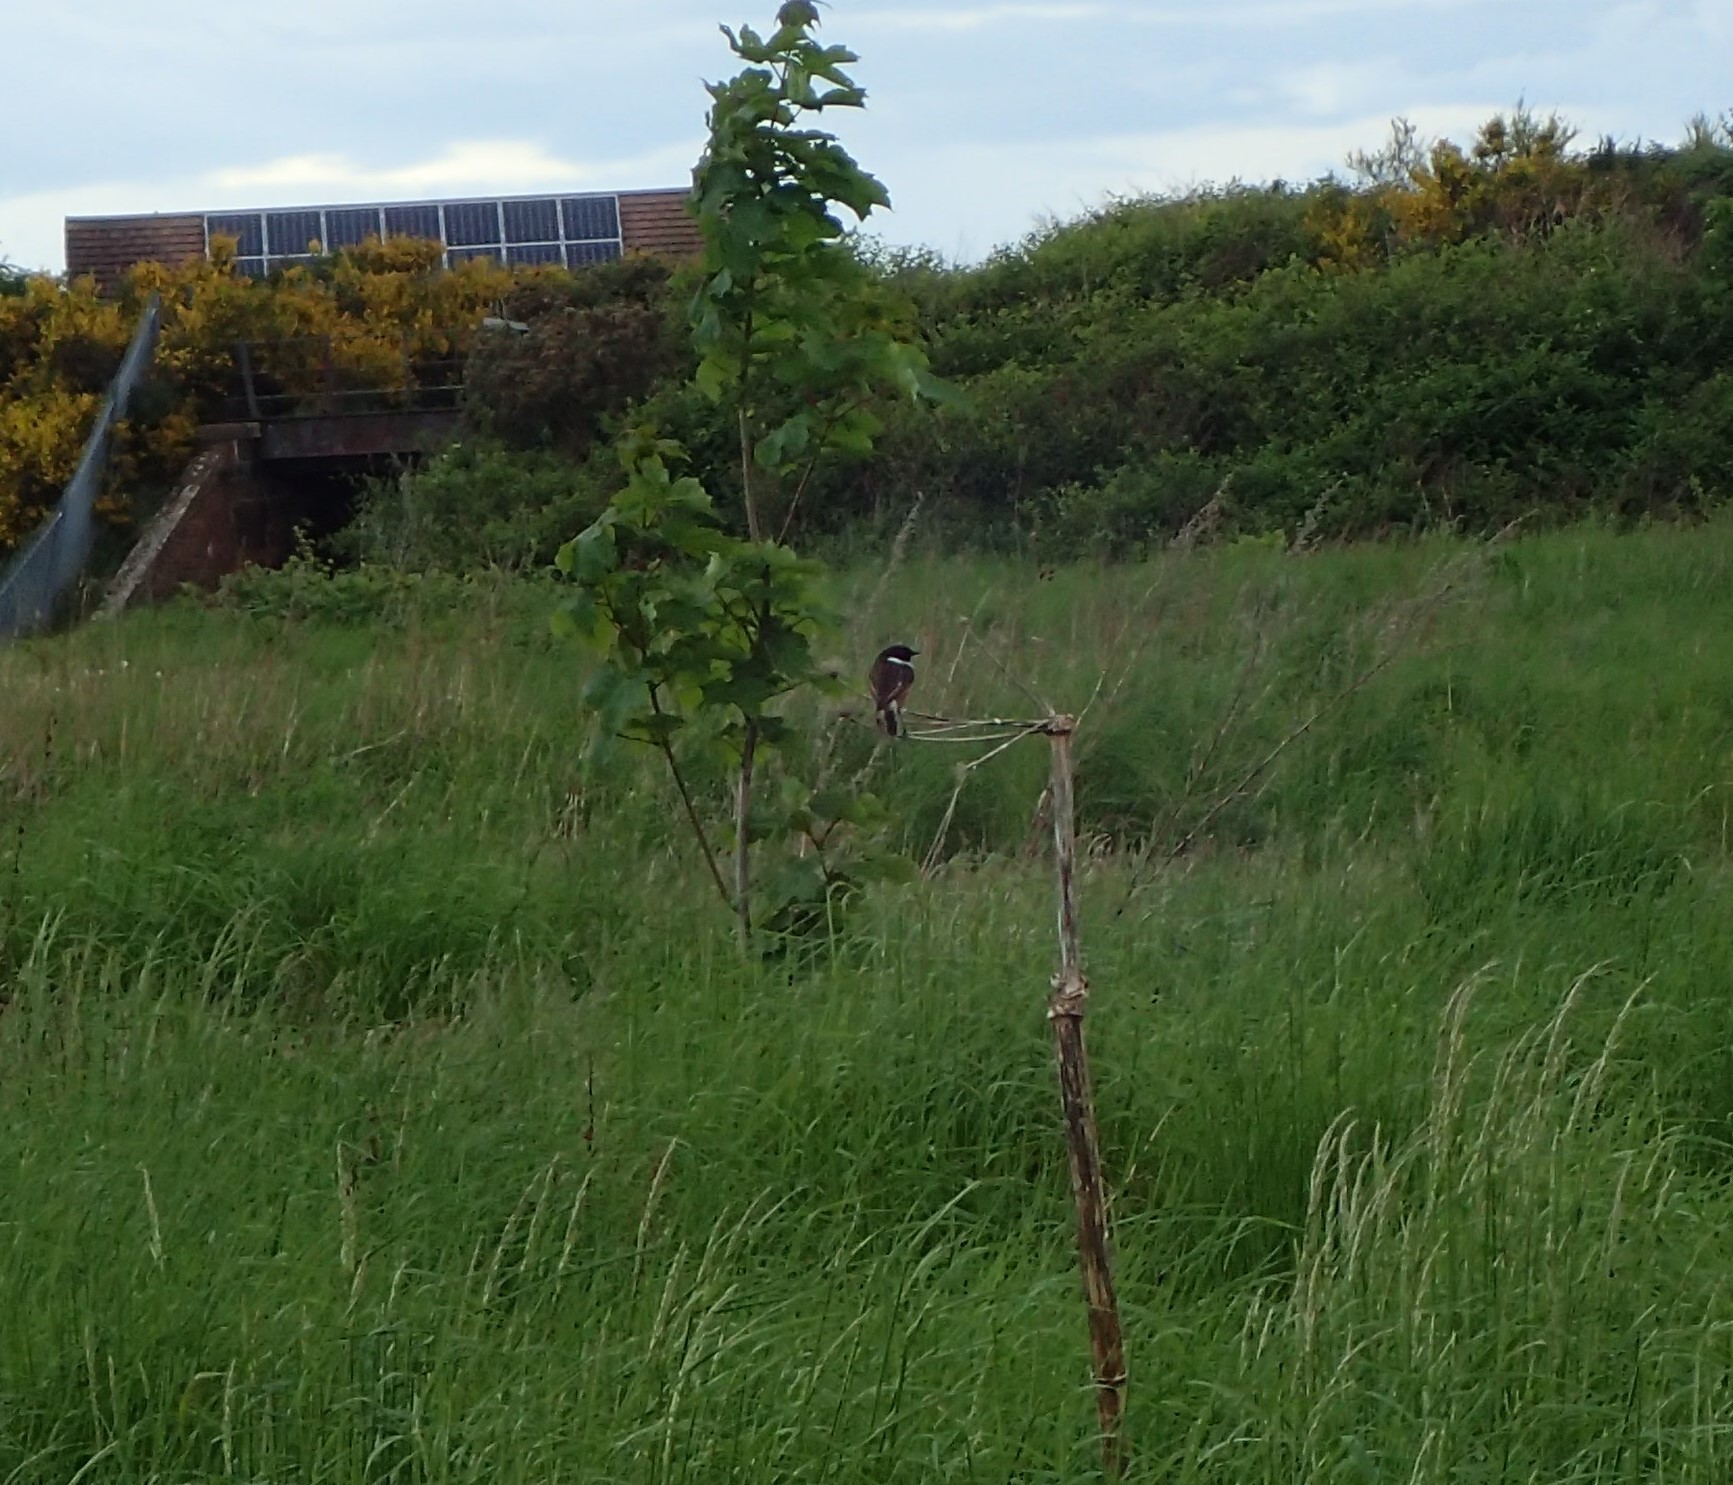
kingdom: Animalia
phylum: Chordata
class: Aves
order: Passeriformes
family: Muscicapidae
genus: Saxicola
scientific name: Saxicola rubicola
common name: European stonechat
